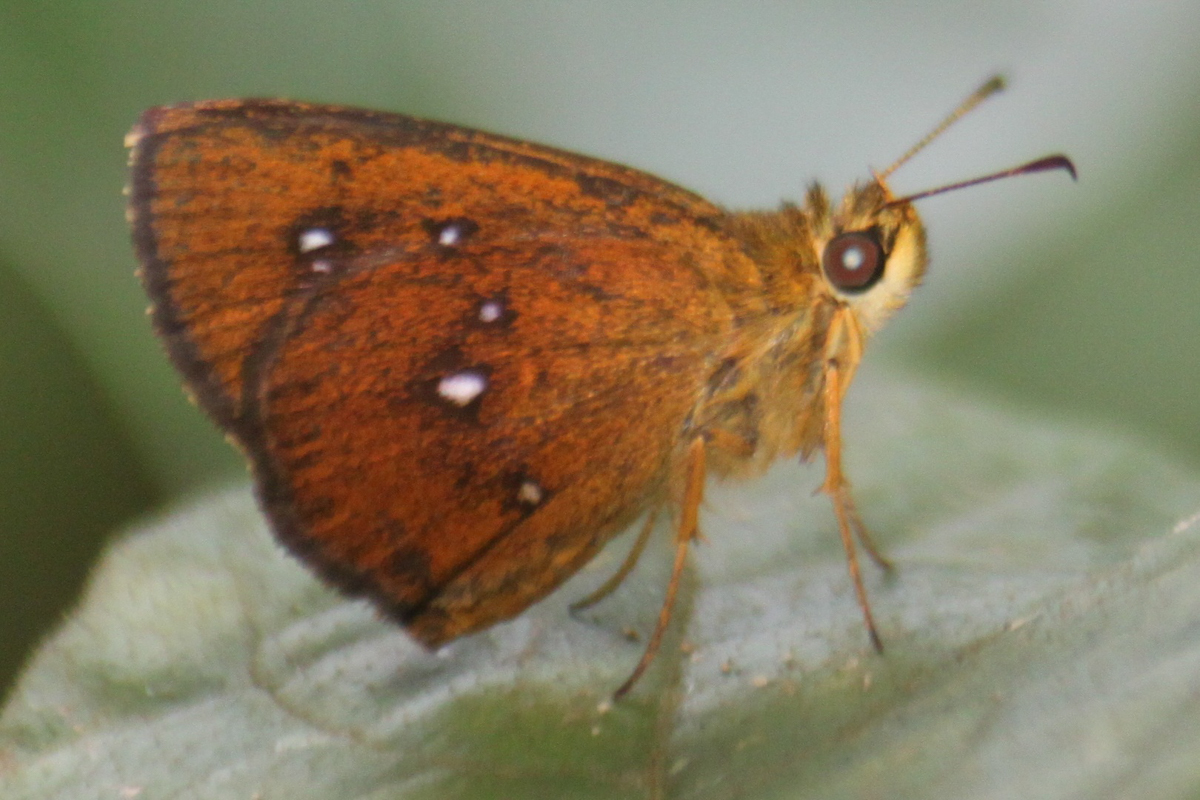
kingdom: Animalia
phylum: Arthropoda
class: Insecta
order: Lepidoptera
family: Hesperiidae
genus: Iambrix
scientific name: Iambrix salsala
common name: Chestnut bob
